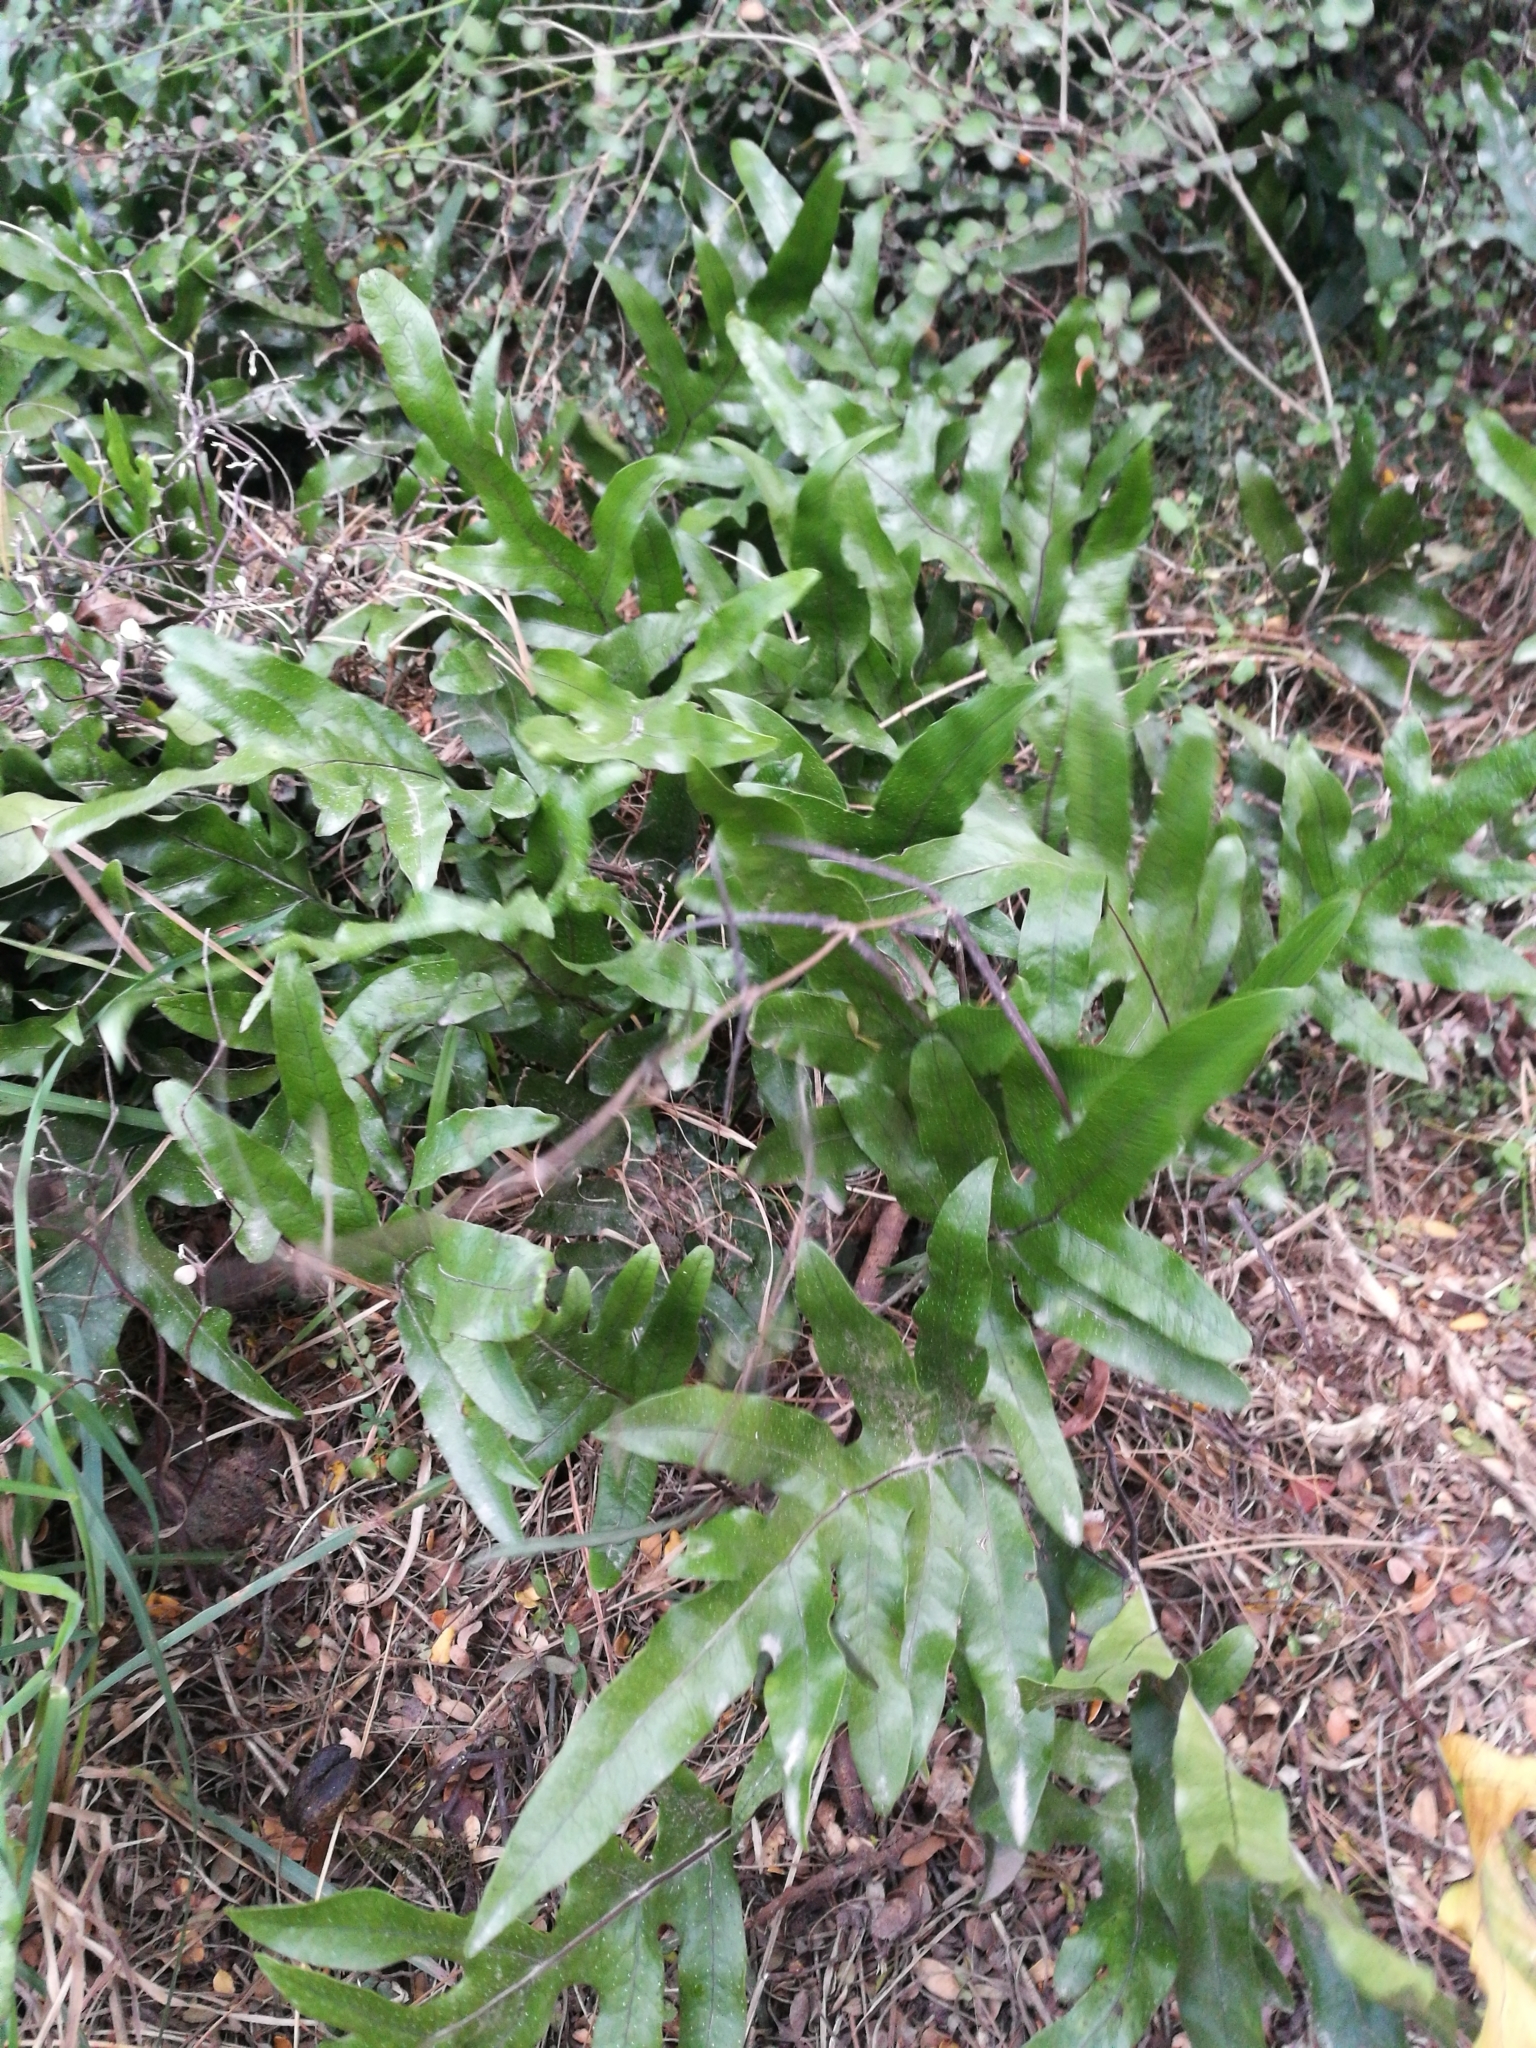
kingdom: Plantae
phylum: Tracheophyta
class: Polypodiopsida
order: Polypodiales
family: Polypodiaceae
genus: Lecanopteris
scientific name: Lecanopteris pustulata
